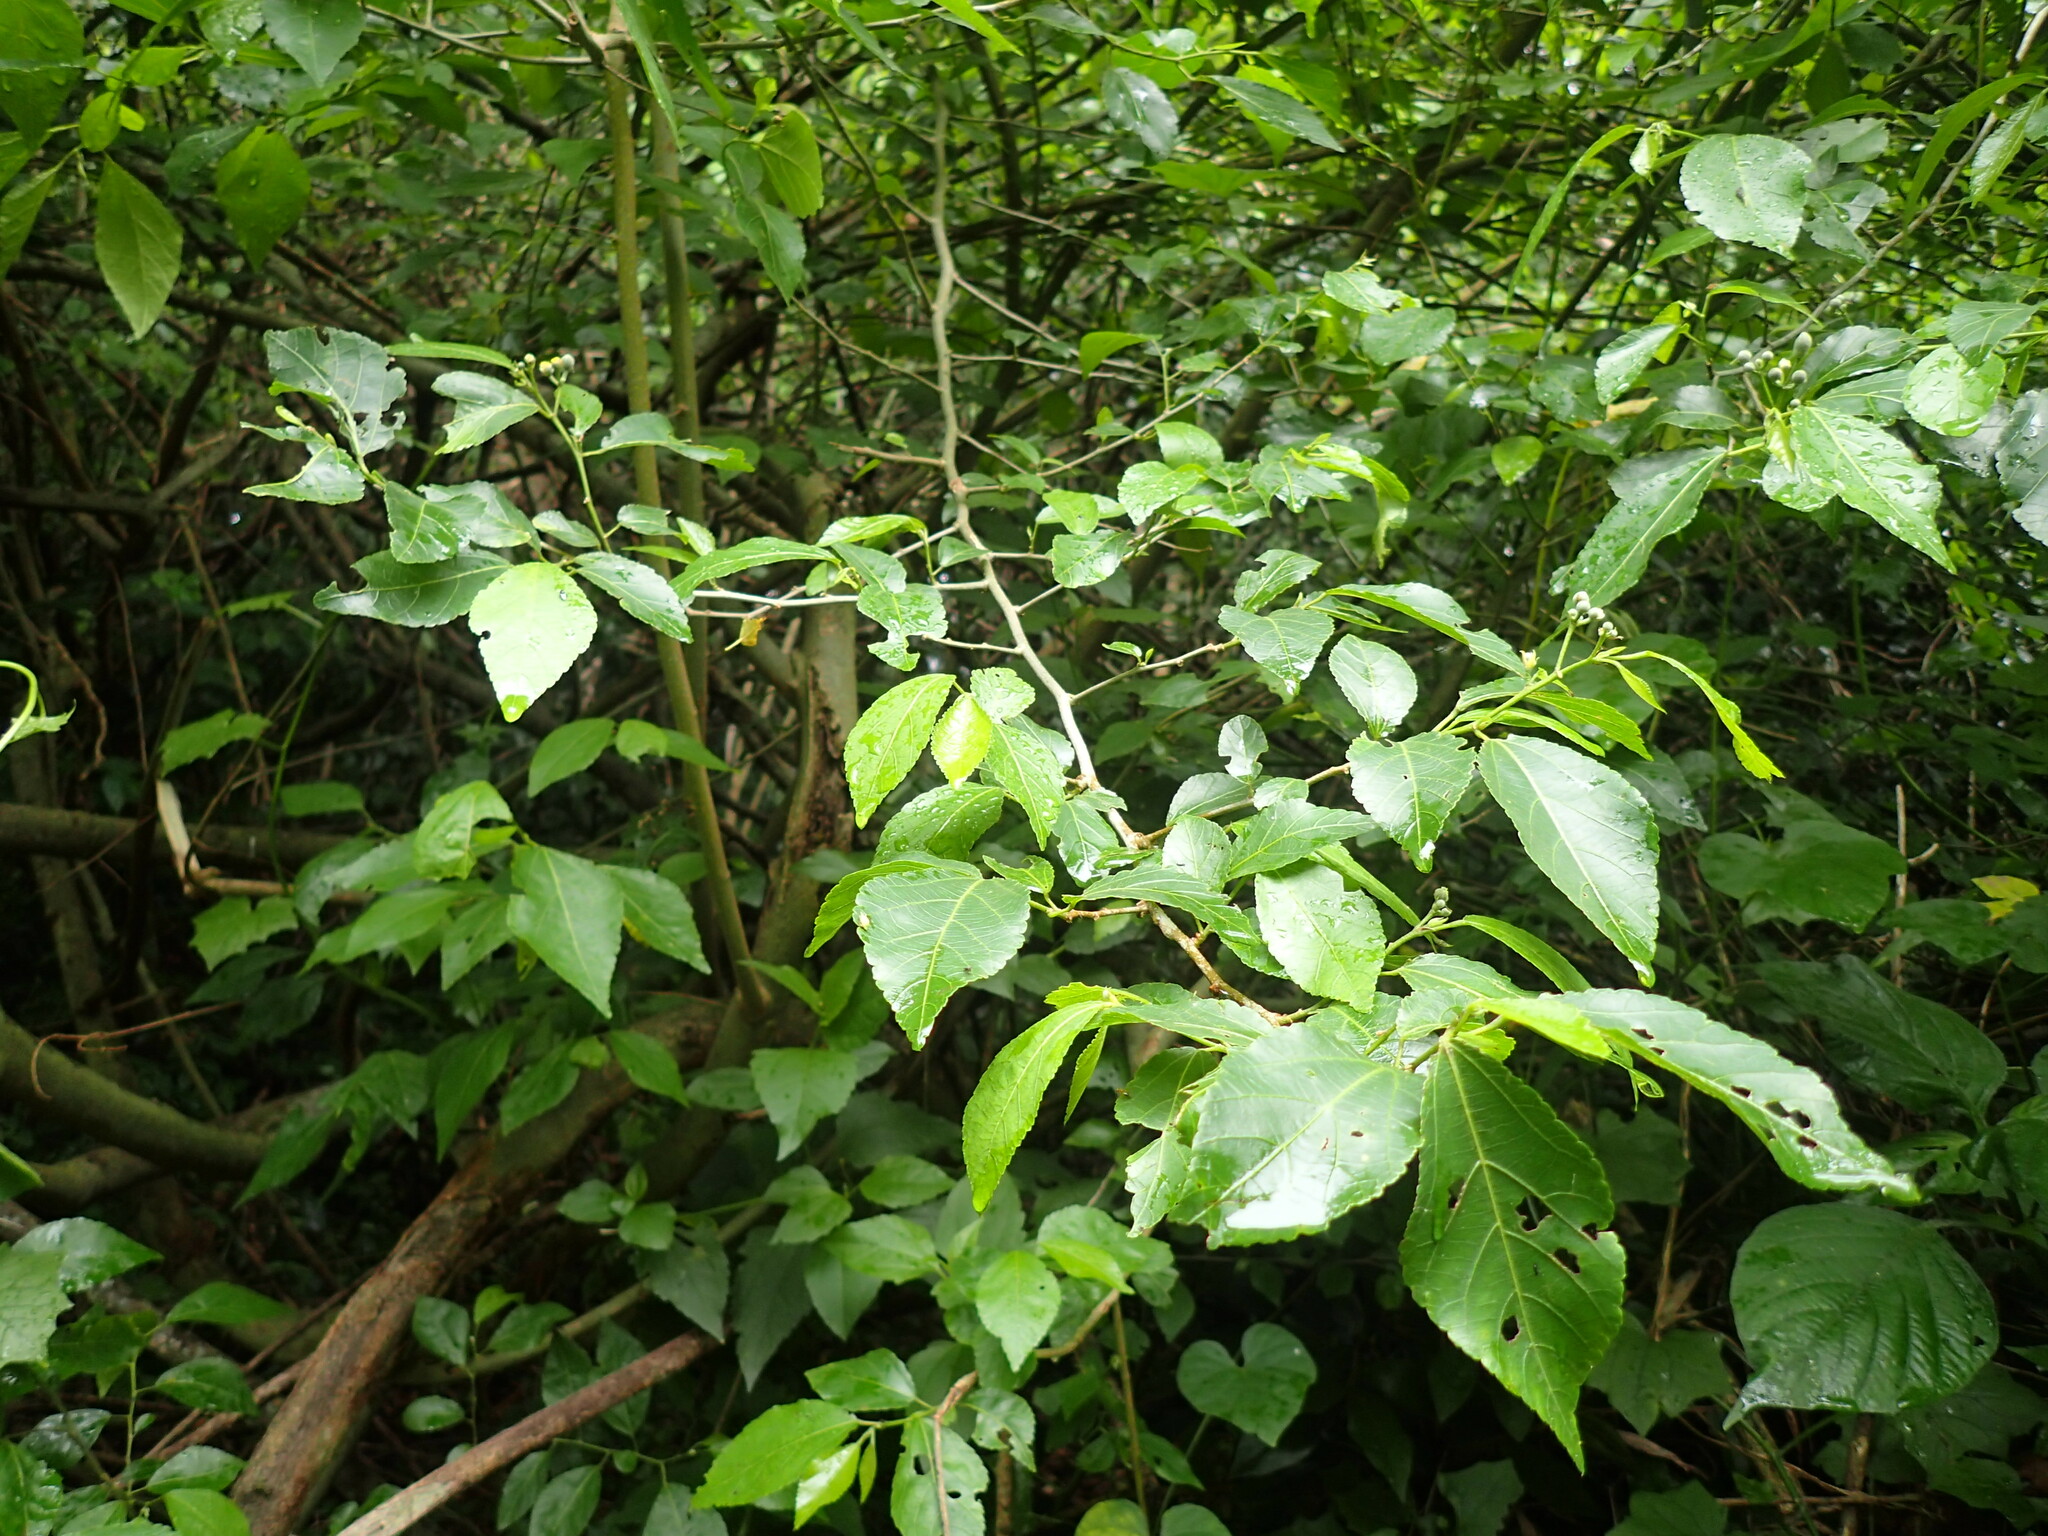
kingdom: Plantae
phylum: Tracheophyta
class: Magnoliopsida
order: Malvales
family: Malvaceae
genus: Grewia
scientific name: Grewia occidentalis
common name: Crossberry
